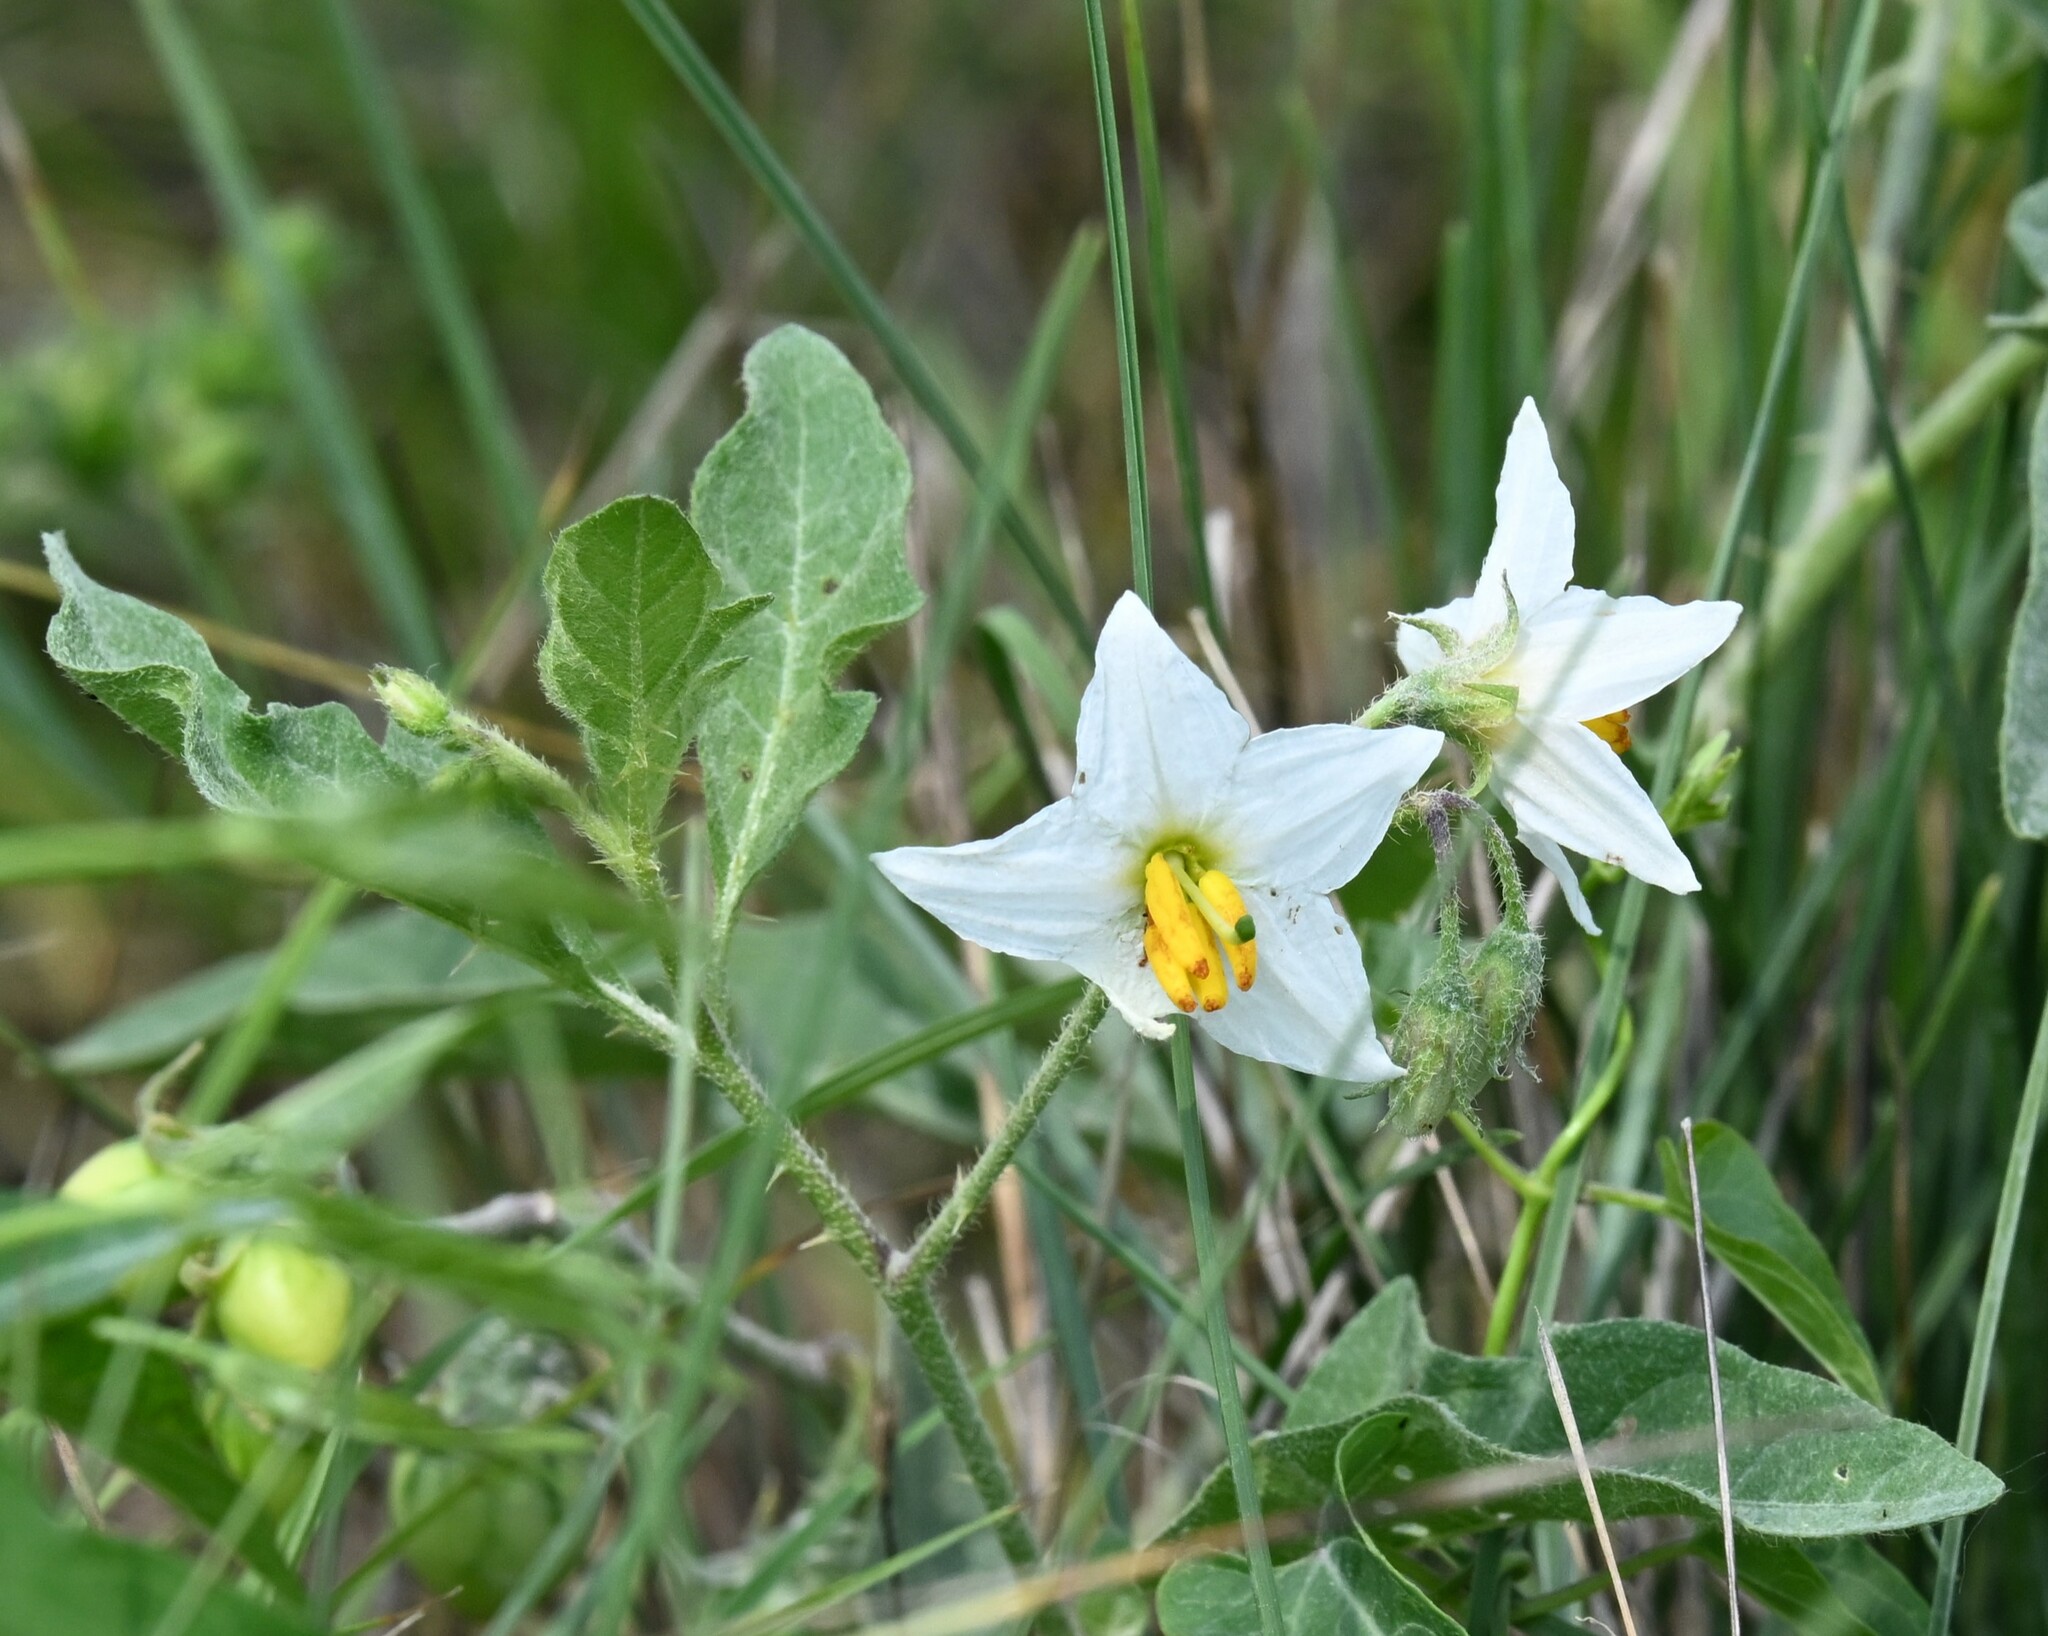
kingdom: Plantae
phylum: Tracheophyta
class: Magnoliopsida
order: Solanales
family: Solanaceae
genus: Solanum
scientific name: Solanum carolinense
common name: Horse-nettle
